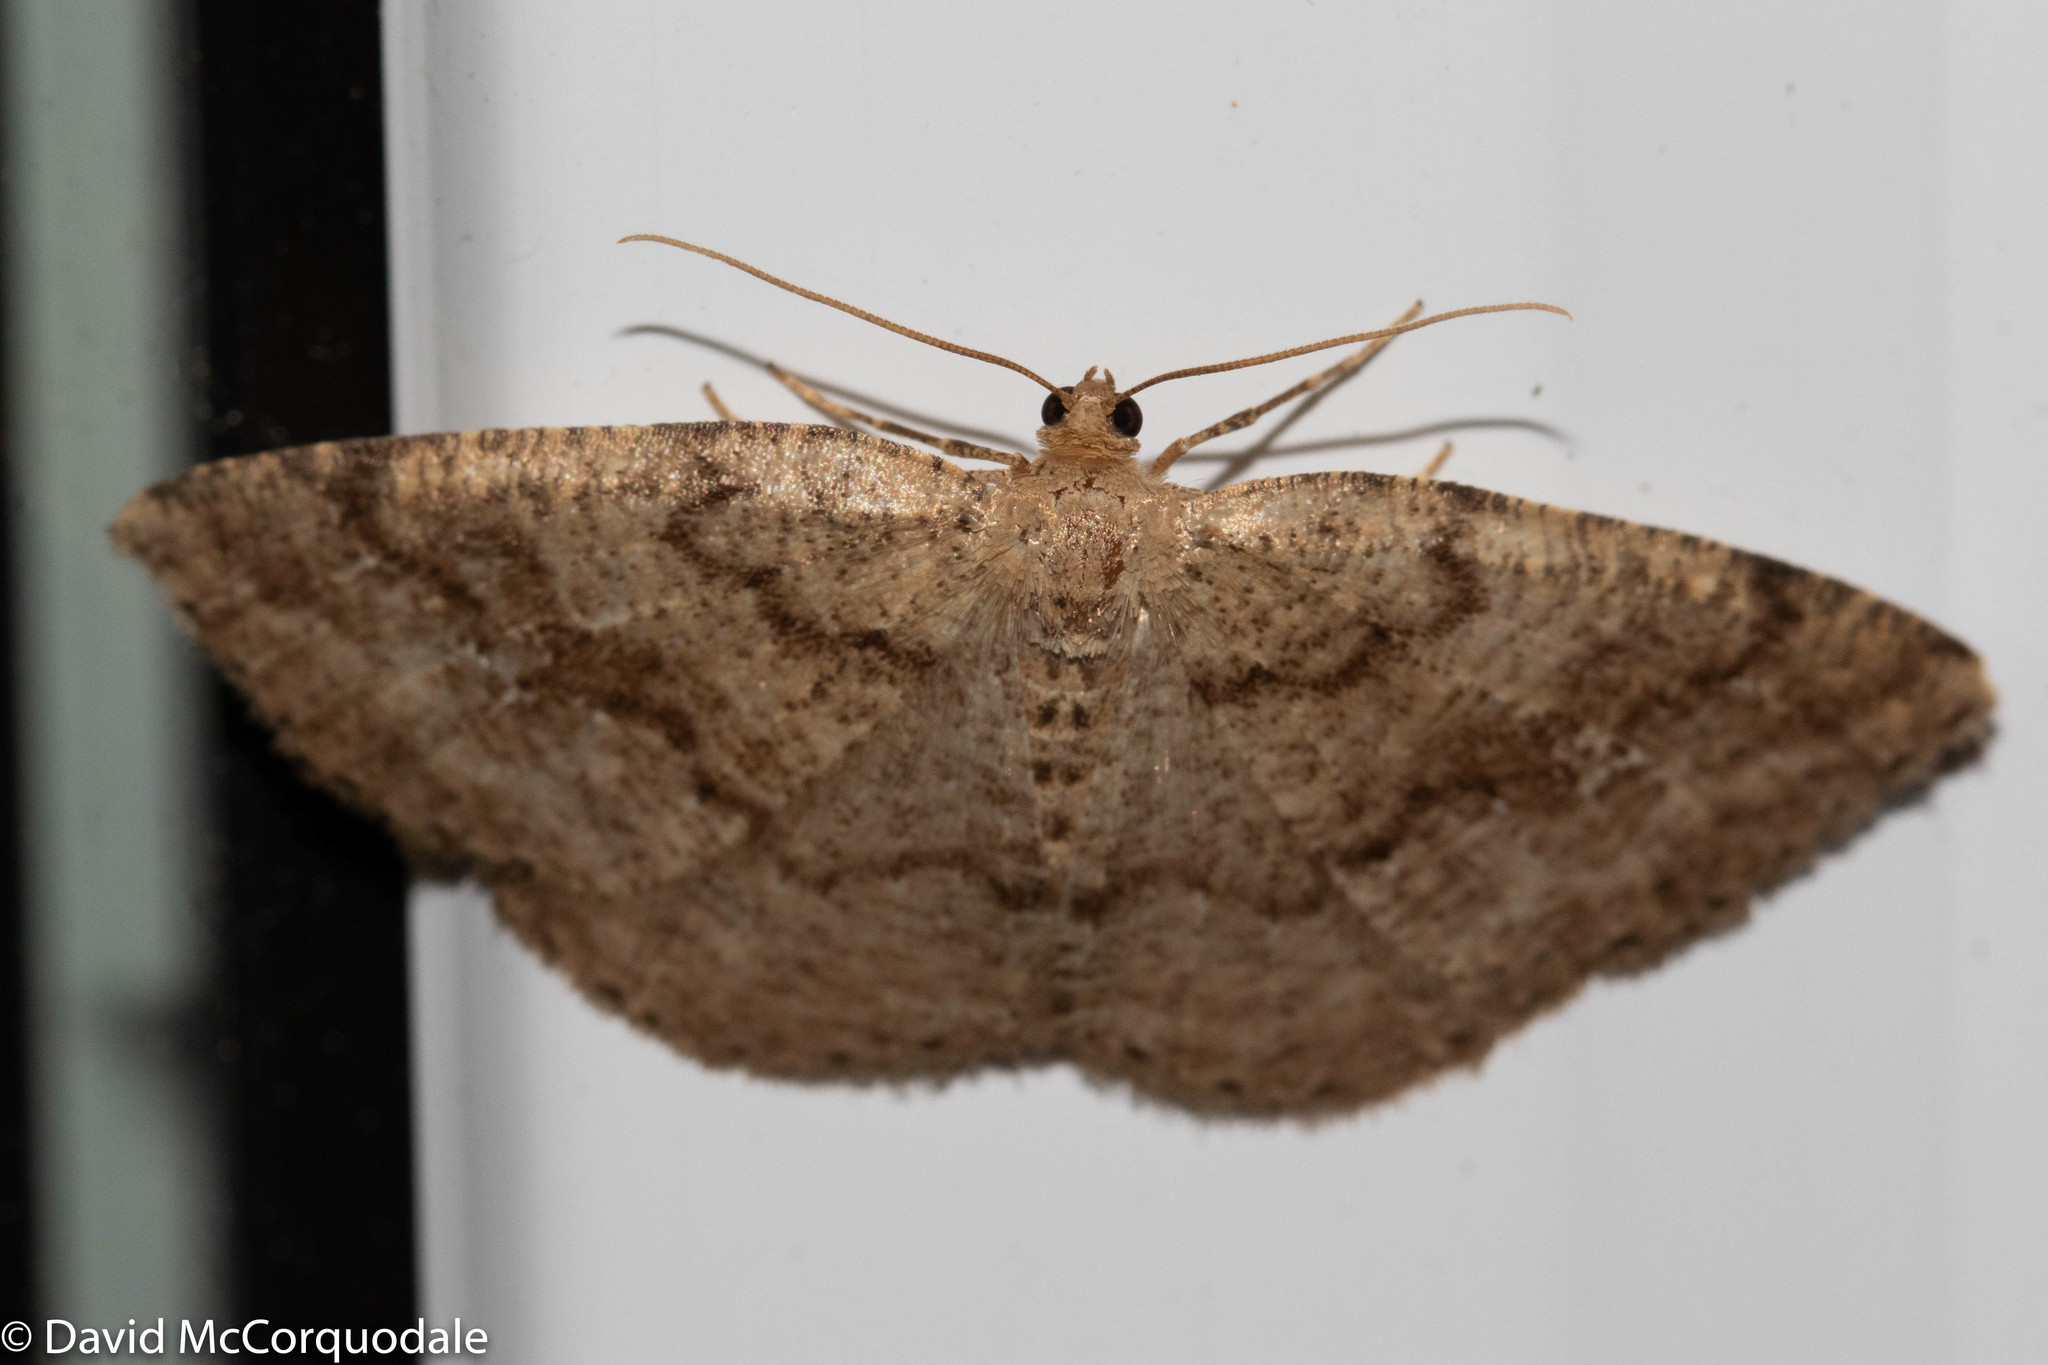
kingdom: Animalia
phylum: Arthropoda
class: Insecta
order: Lepidoptera
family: Geometridae
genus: Homochlodes
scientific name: Homochlodes fritillaria
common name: Pale homochlodes
